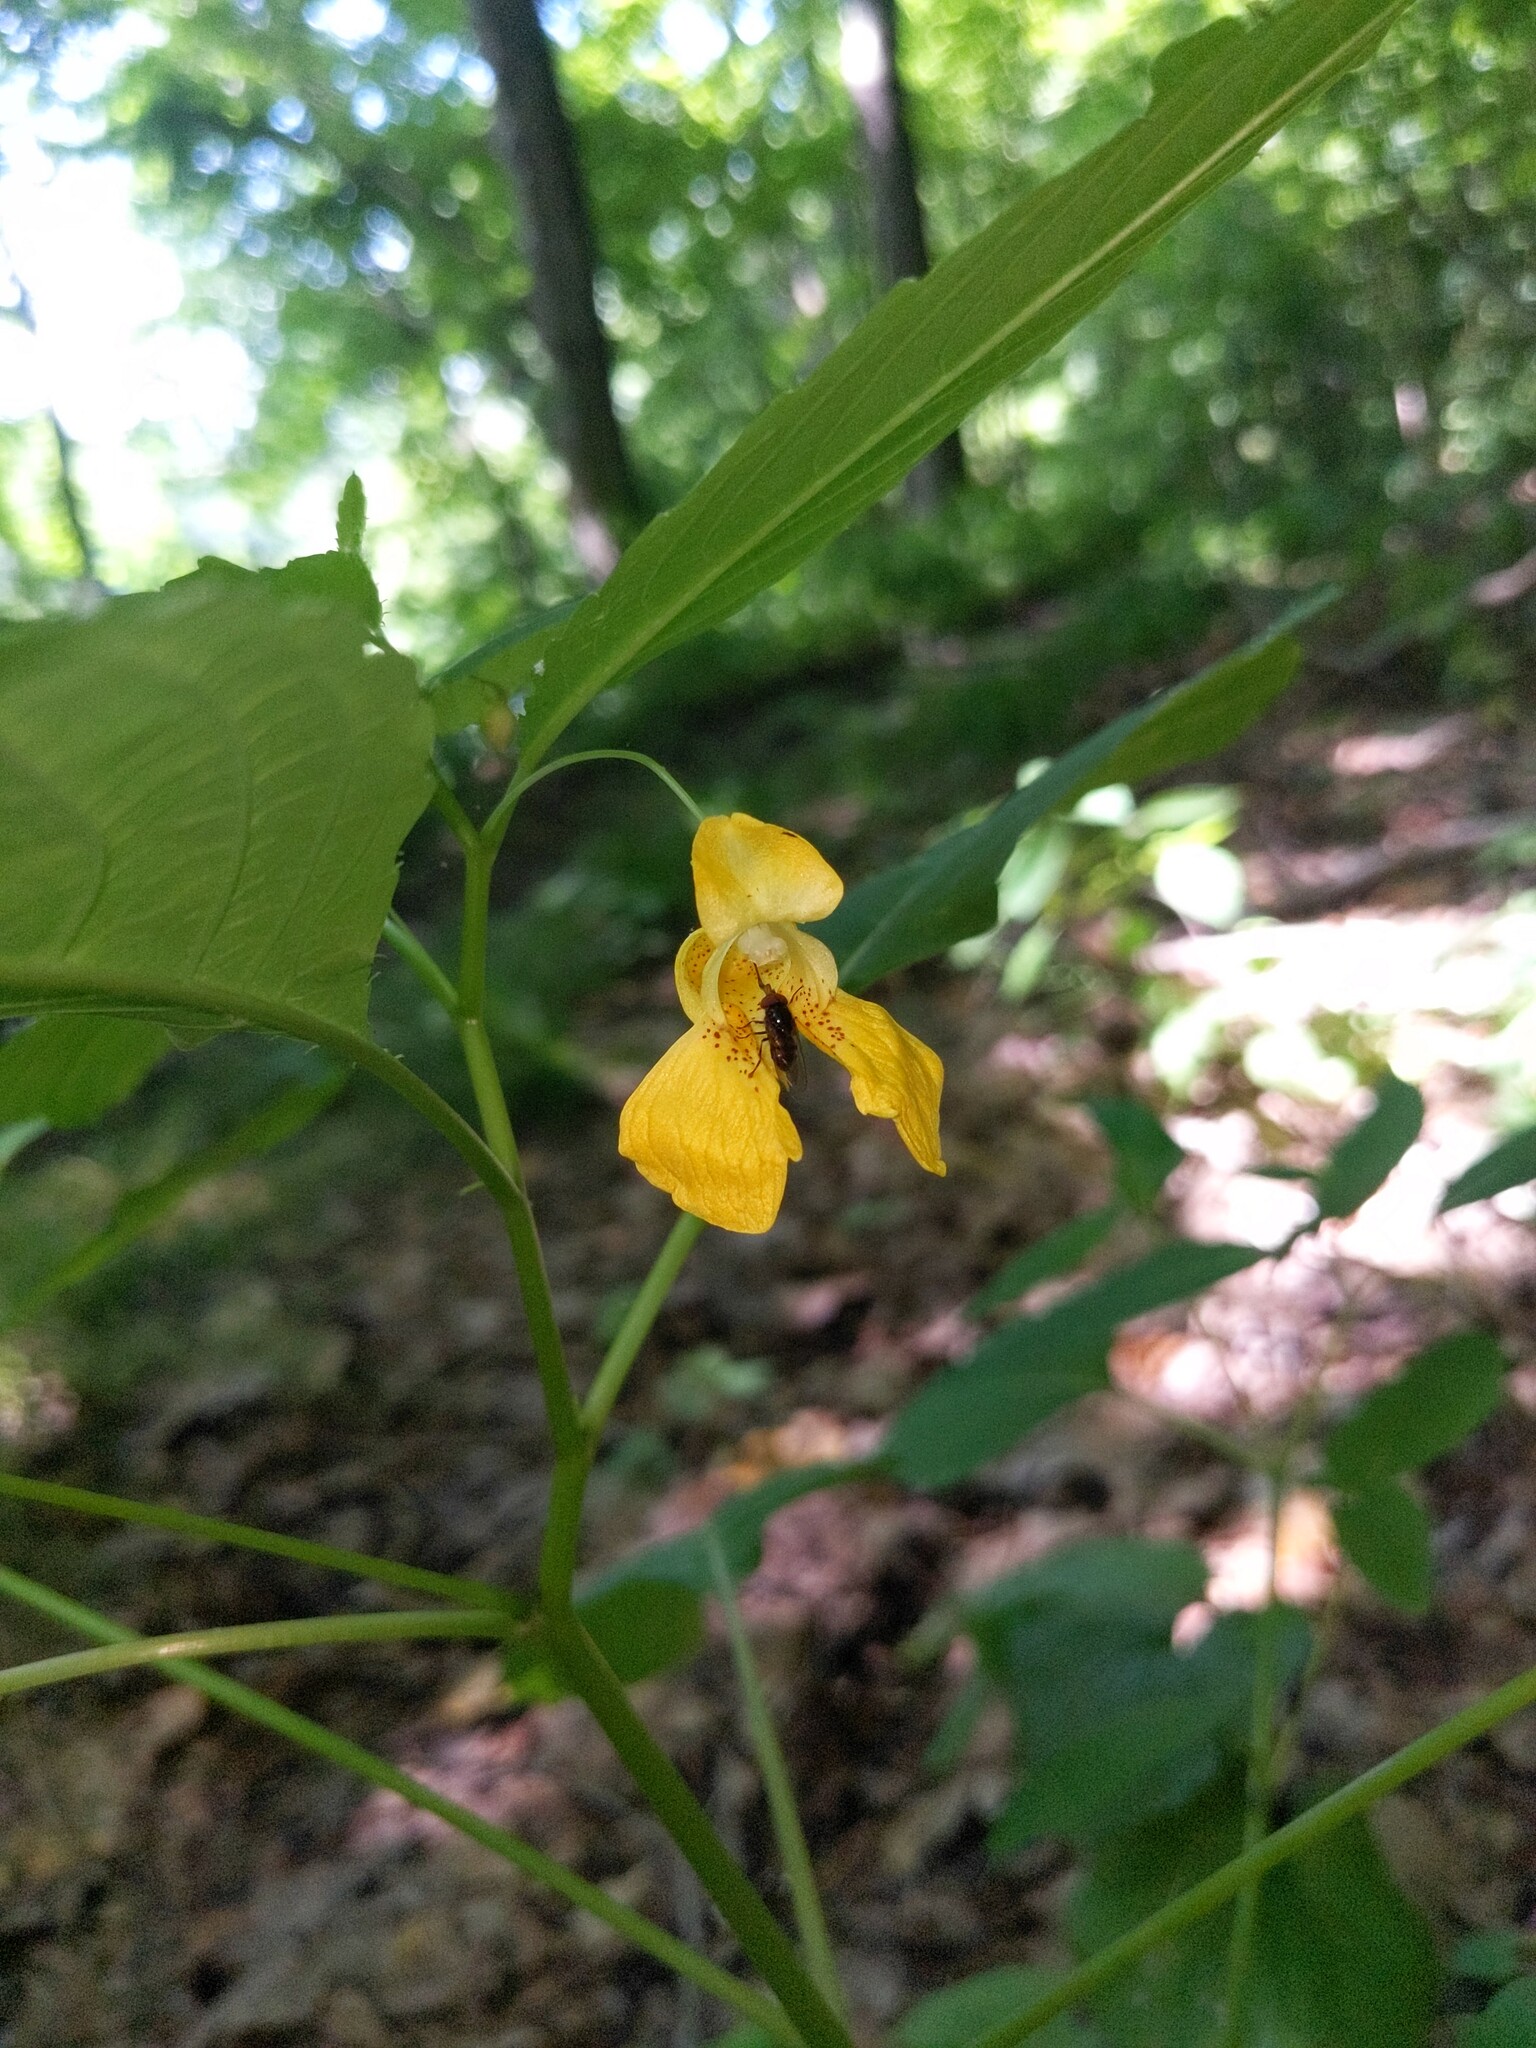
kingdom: Plantae
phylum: Tracheophyta
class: Magnoliopsida
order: Ericales
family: Balsaminaceae
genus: Impatiens
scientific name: Impatiens pallida
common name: Pale snapweed
